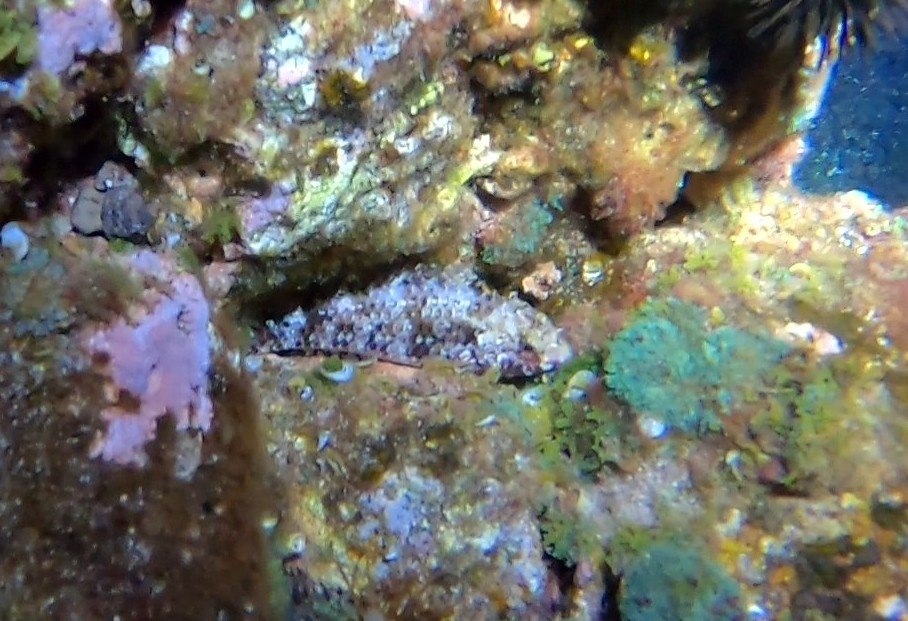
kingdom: Animalia
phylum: Chordata
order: Perciformes
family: Scaridae
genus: Sparisoma
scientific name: Sparisoma cretense
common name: Parrotfish
